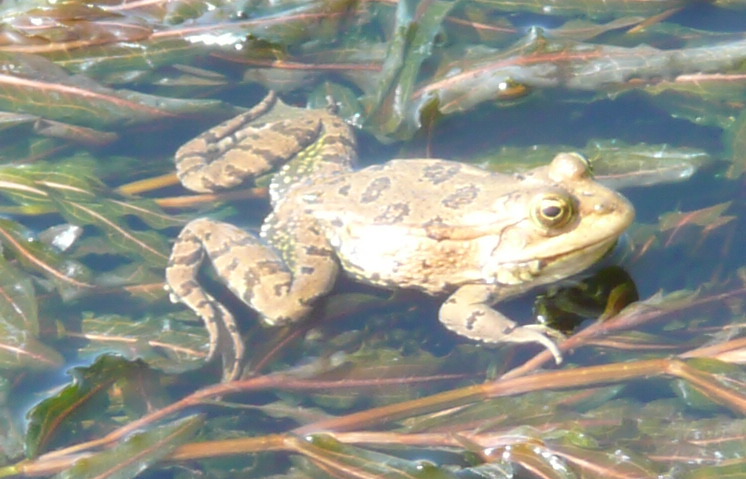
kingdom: Animalia
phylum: Chordata
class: Amphibia
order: Anura
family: Ranidae
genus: Pelophylax
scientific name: Pelophylax ridibundus
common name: Marsh frog
